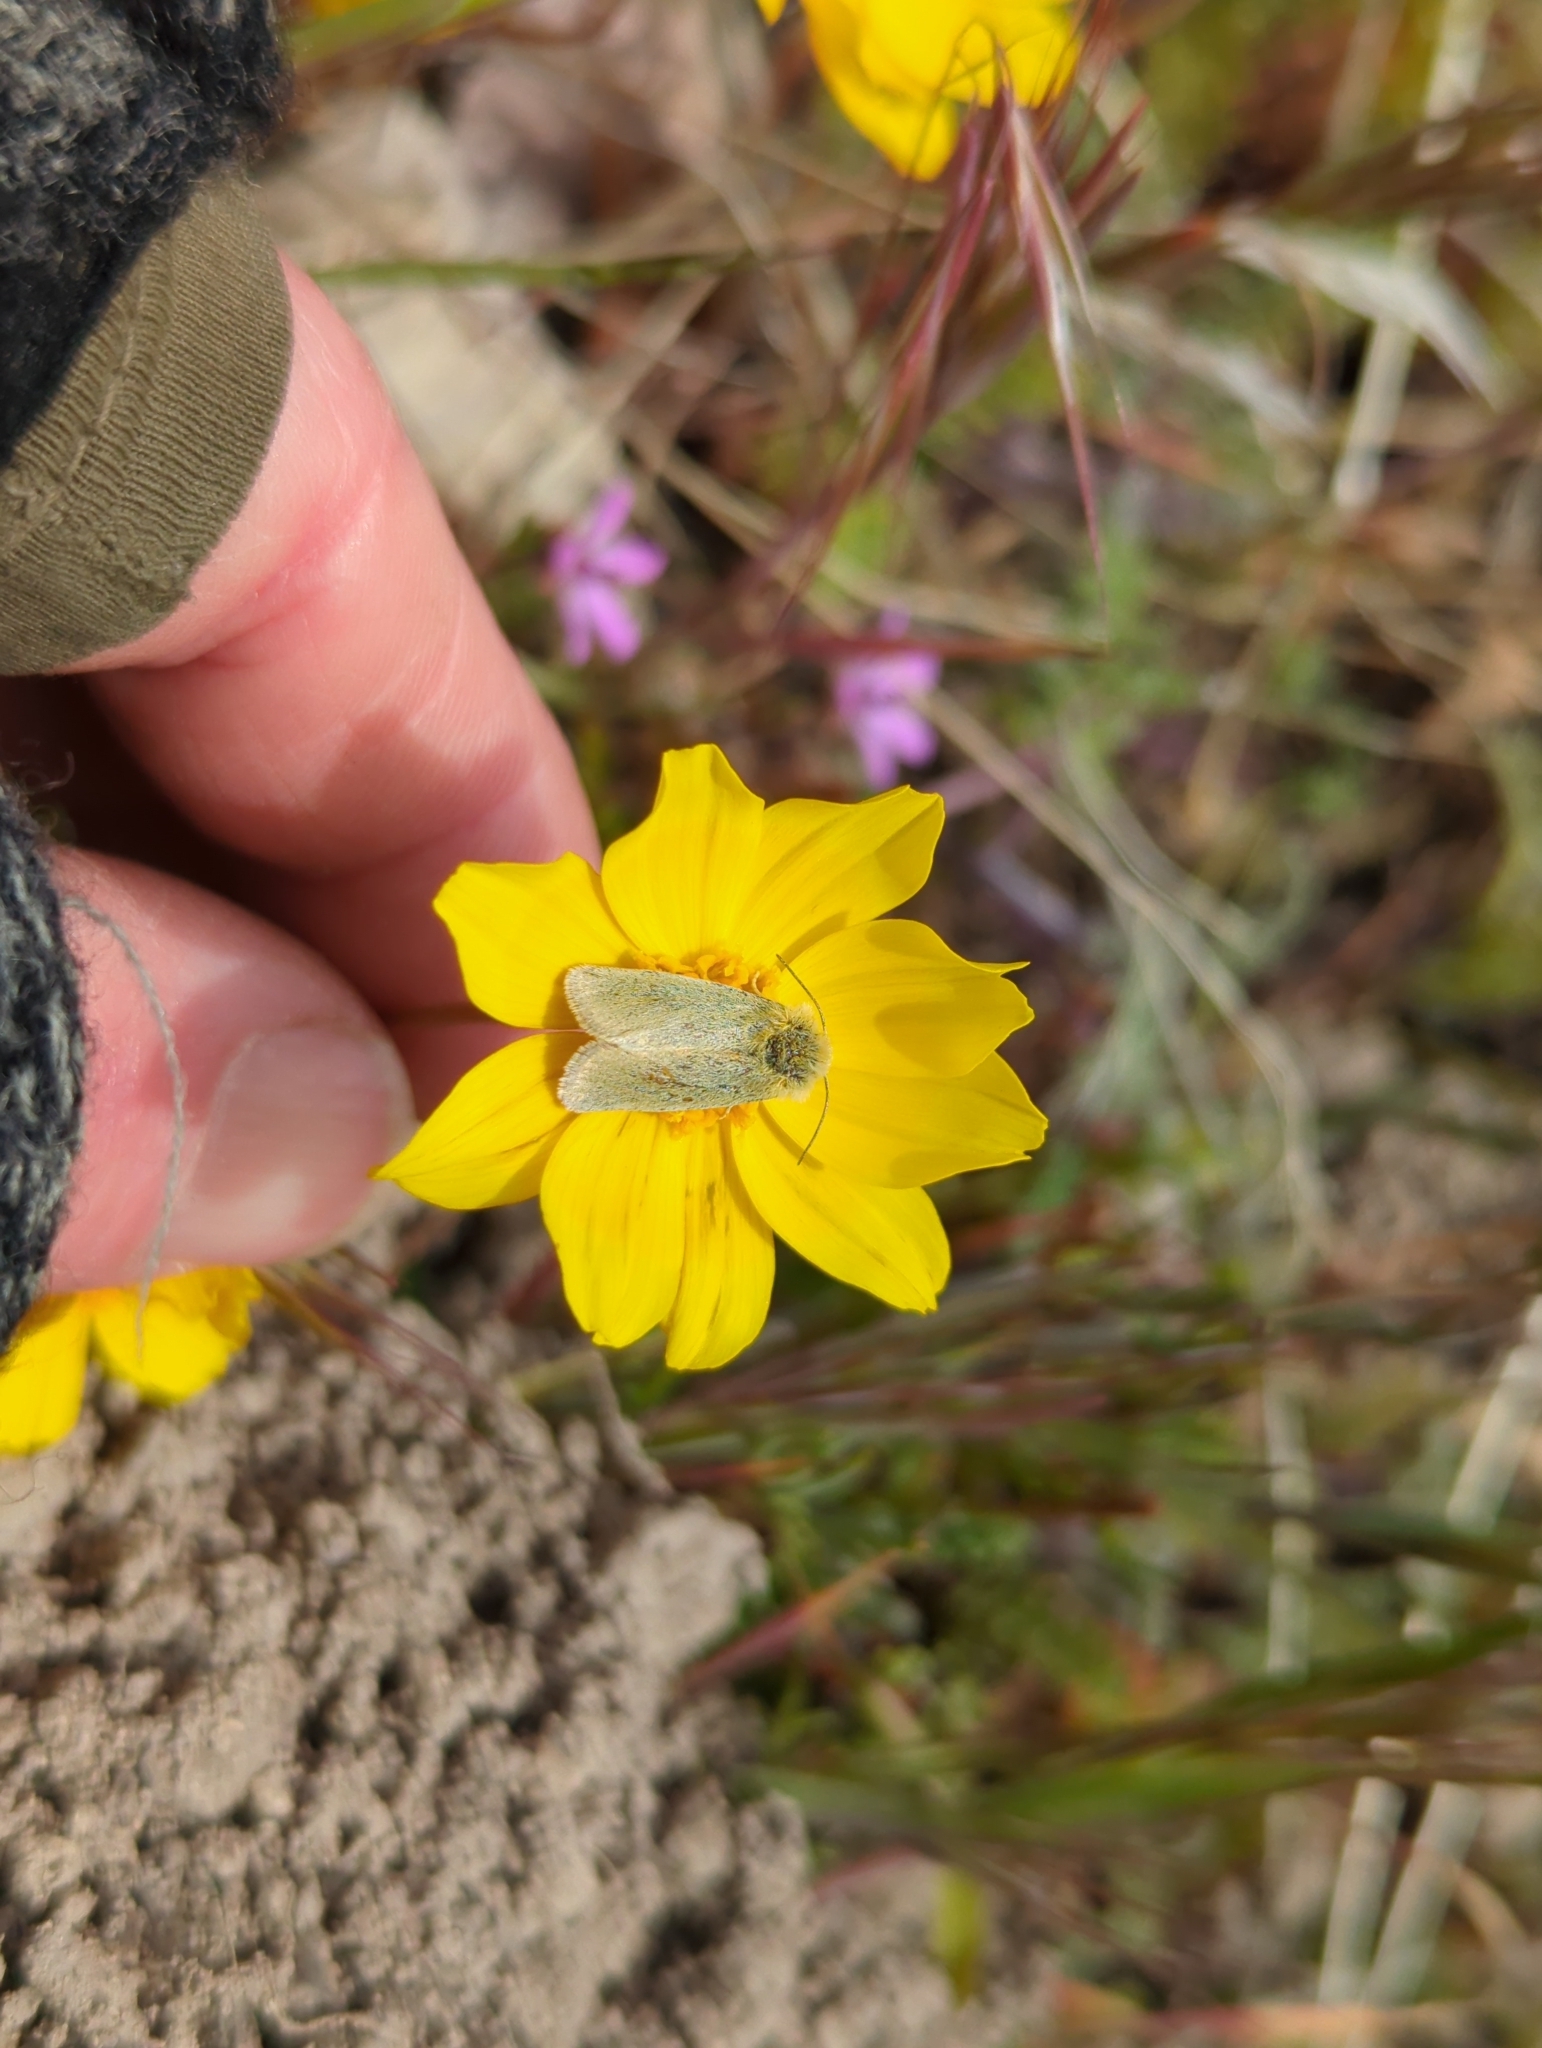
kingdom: Animalia
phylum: Arthropoda
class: Insecta
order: Lepidoptera
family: Noctuidae
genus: Xanthothrix
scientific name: Xanthothrix ranunculi
